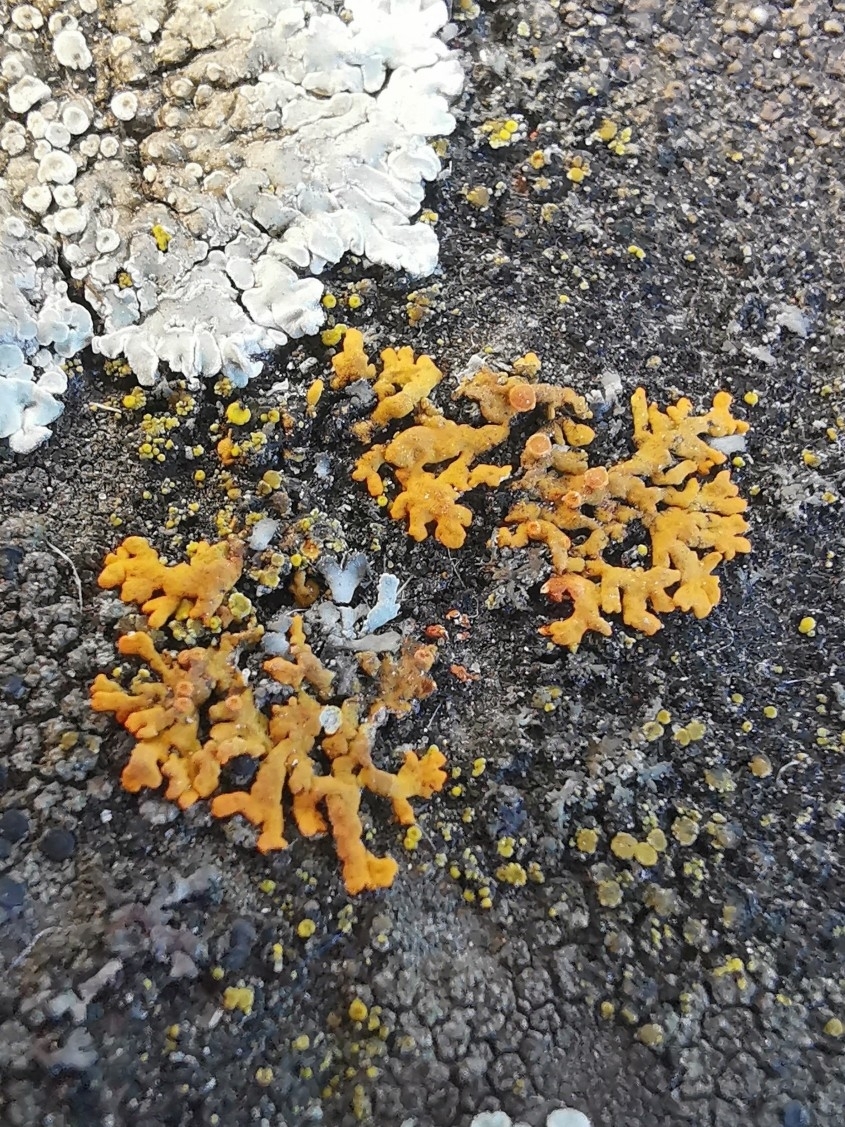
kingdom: Fungi
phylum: Ascomycota
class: Lecanoromycetes
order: Teloschistales
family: Teloschistaceae
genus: Xanthoria
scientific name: Xanthoria elegans
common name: Elegant sunburst lichen
